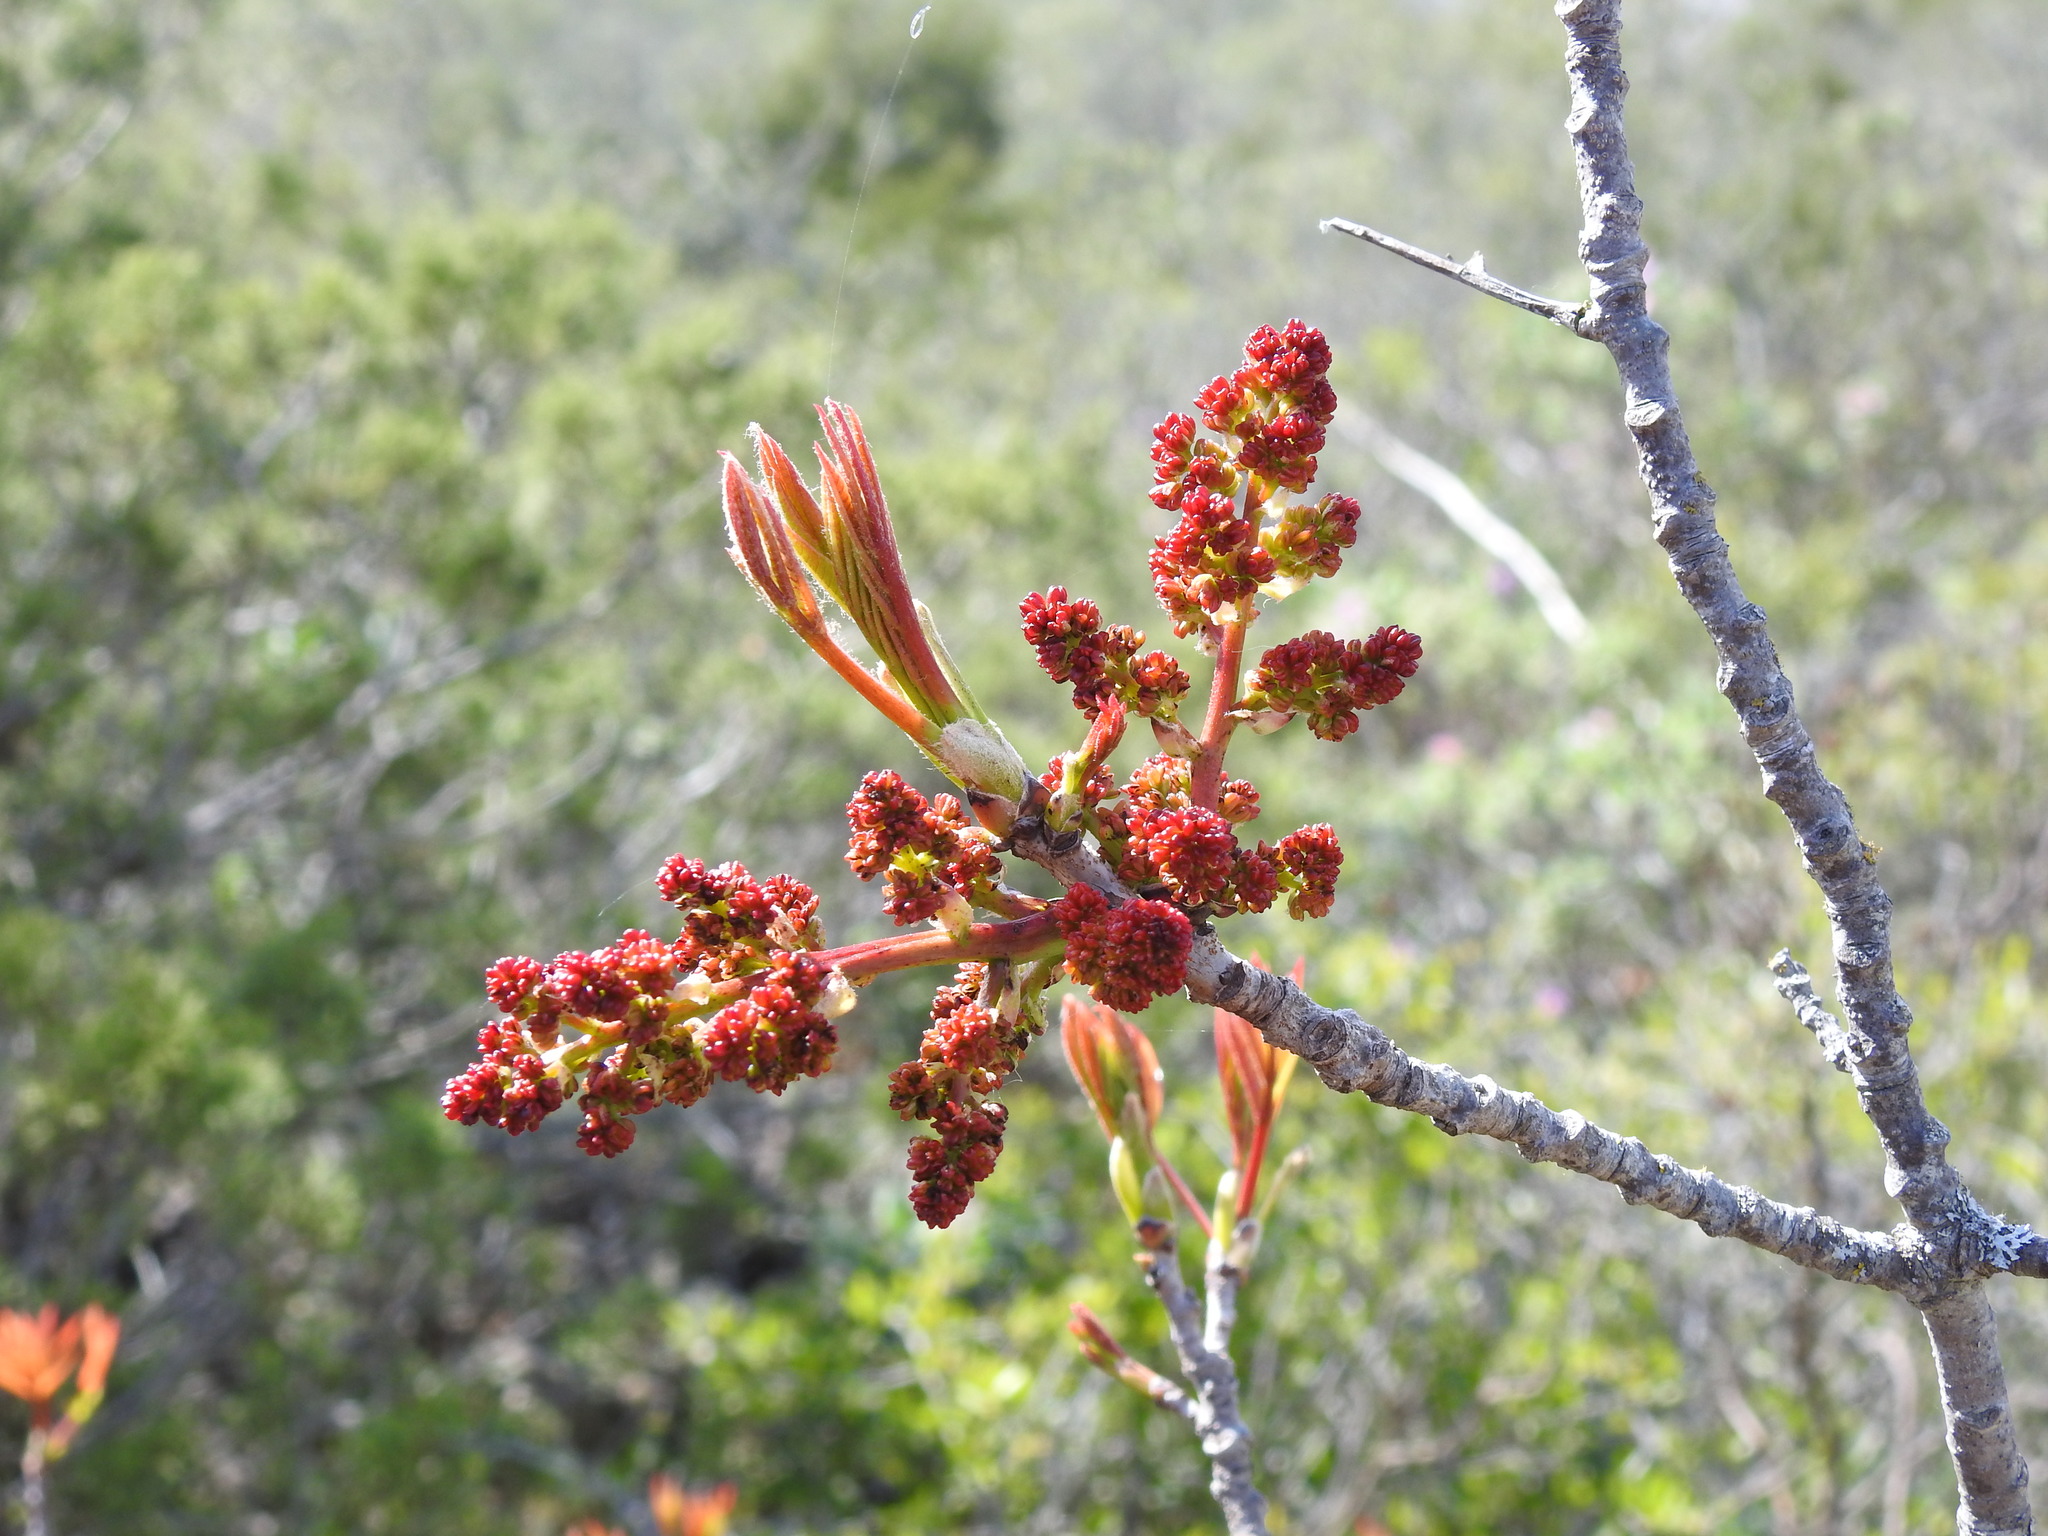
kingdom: Plantae
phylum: Tracheophyta
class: Magnoliopsida
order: Sapindales
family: Anacardiaceae
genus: Pistacia
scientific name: Pistacia terebinthus
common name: Terebinth
